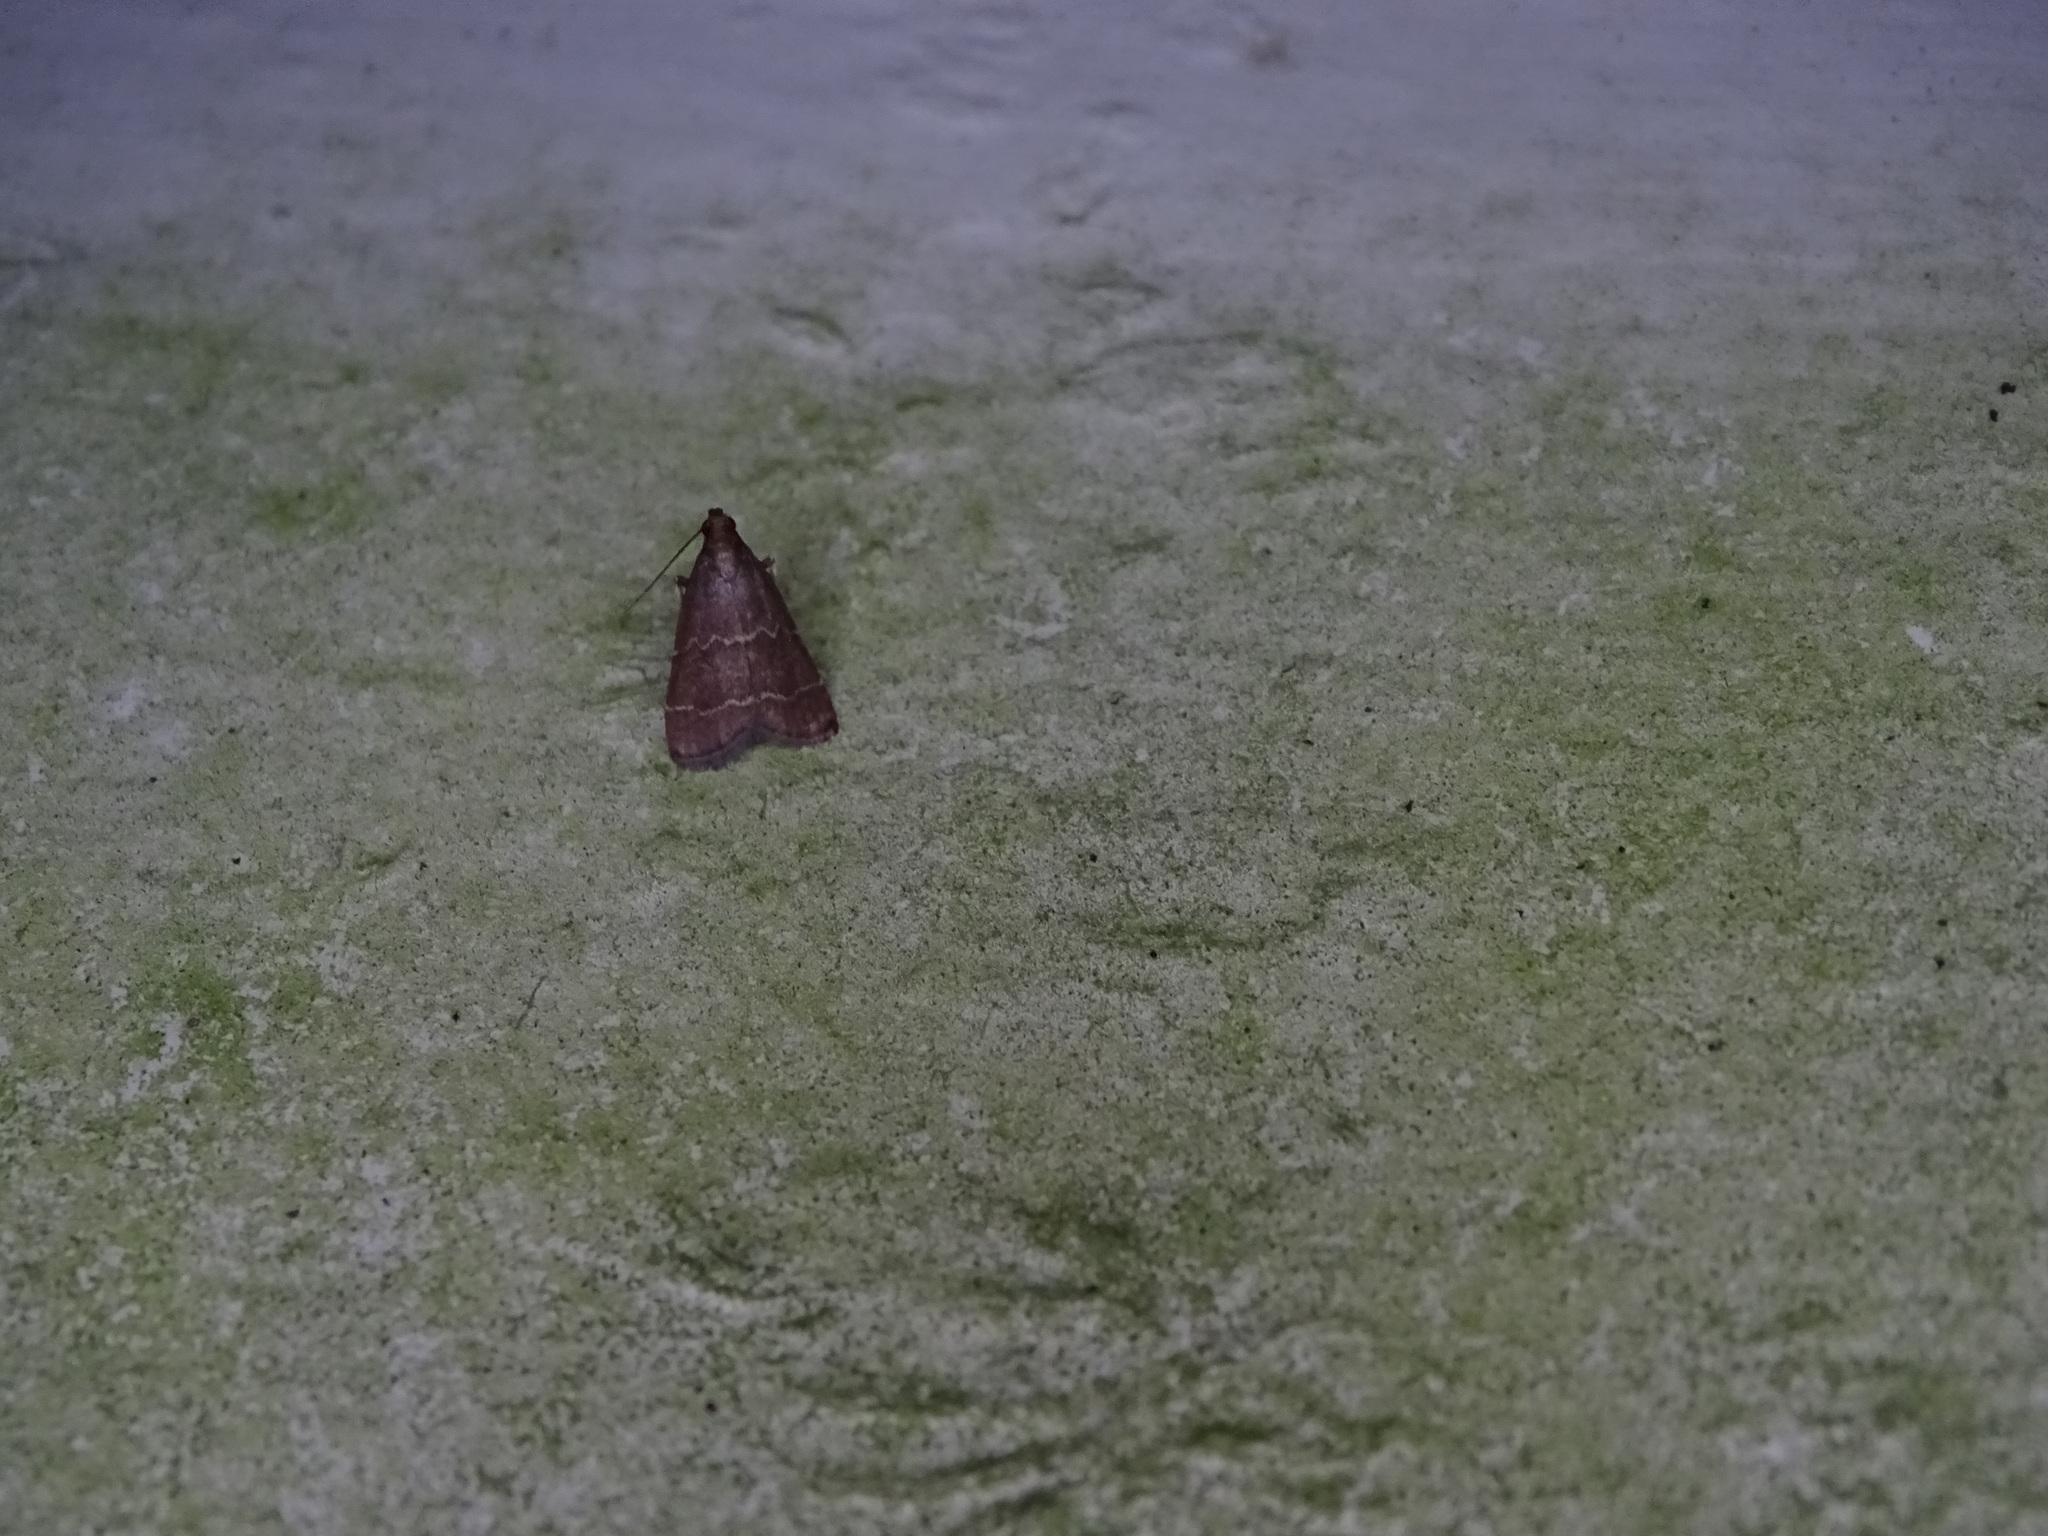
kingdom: Animalia
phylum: Arthropoda
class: Insecta
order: Lepidoptera
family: Pyralidae
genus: Arta
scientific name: Arta
